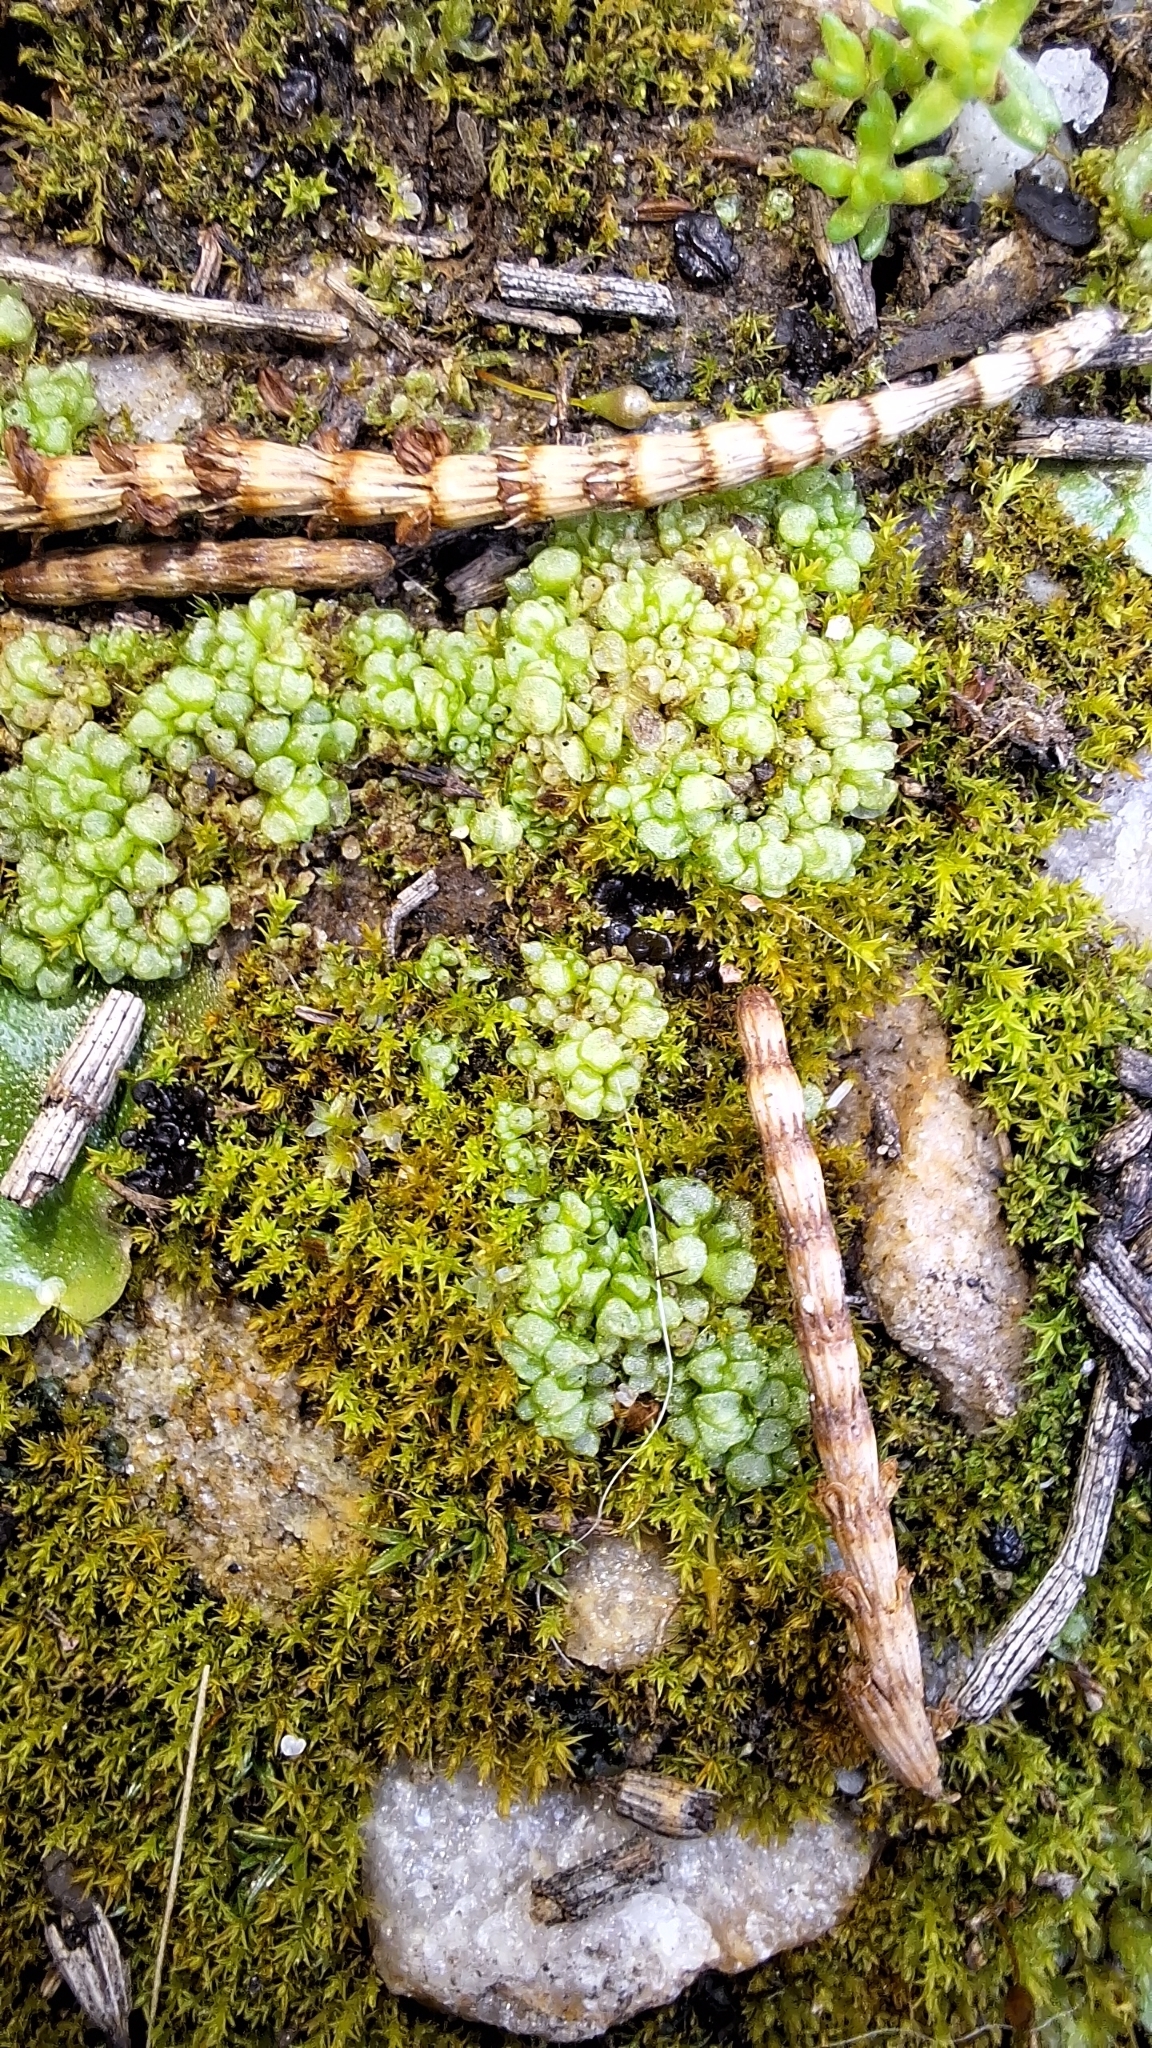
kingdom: Plantae
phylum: Marchantiophyta
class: Marchantiopsida
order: Sphaerocarpales
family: Sphaerocarpaceae
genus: Sphaerocarpos
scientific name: Sphaerocarpos texanus
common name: Texas balloonwort
